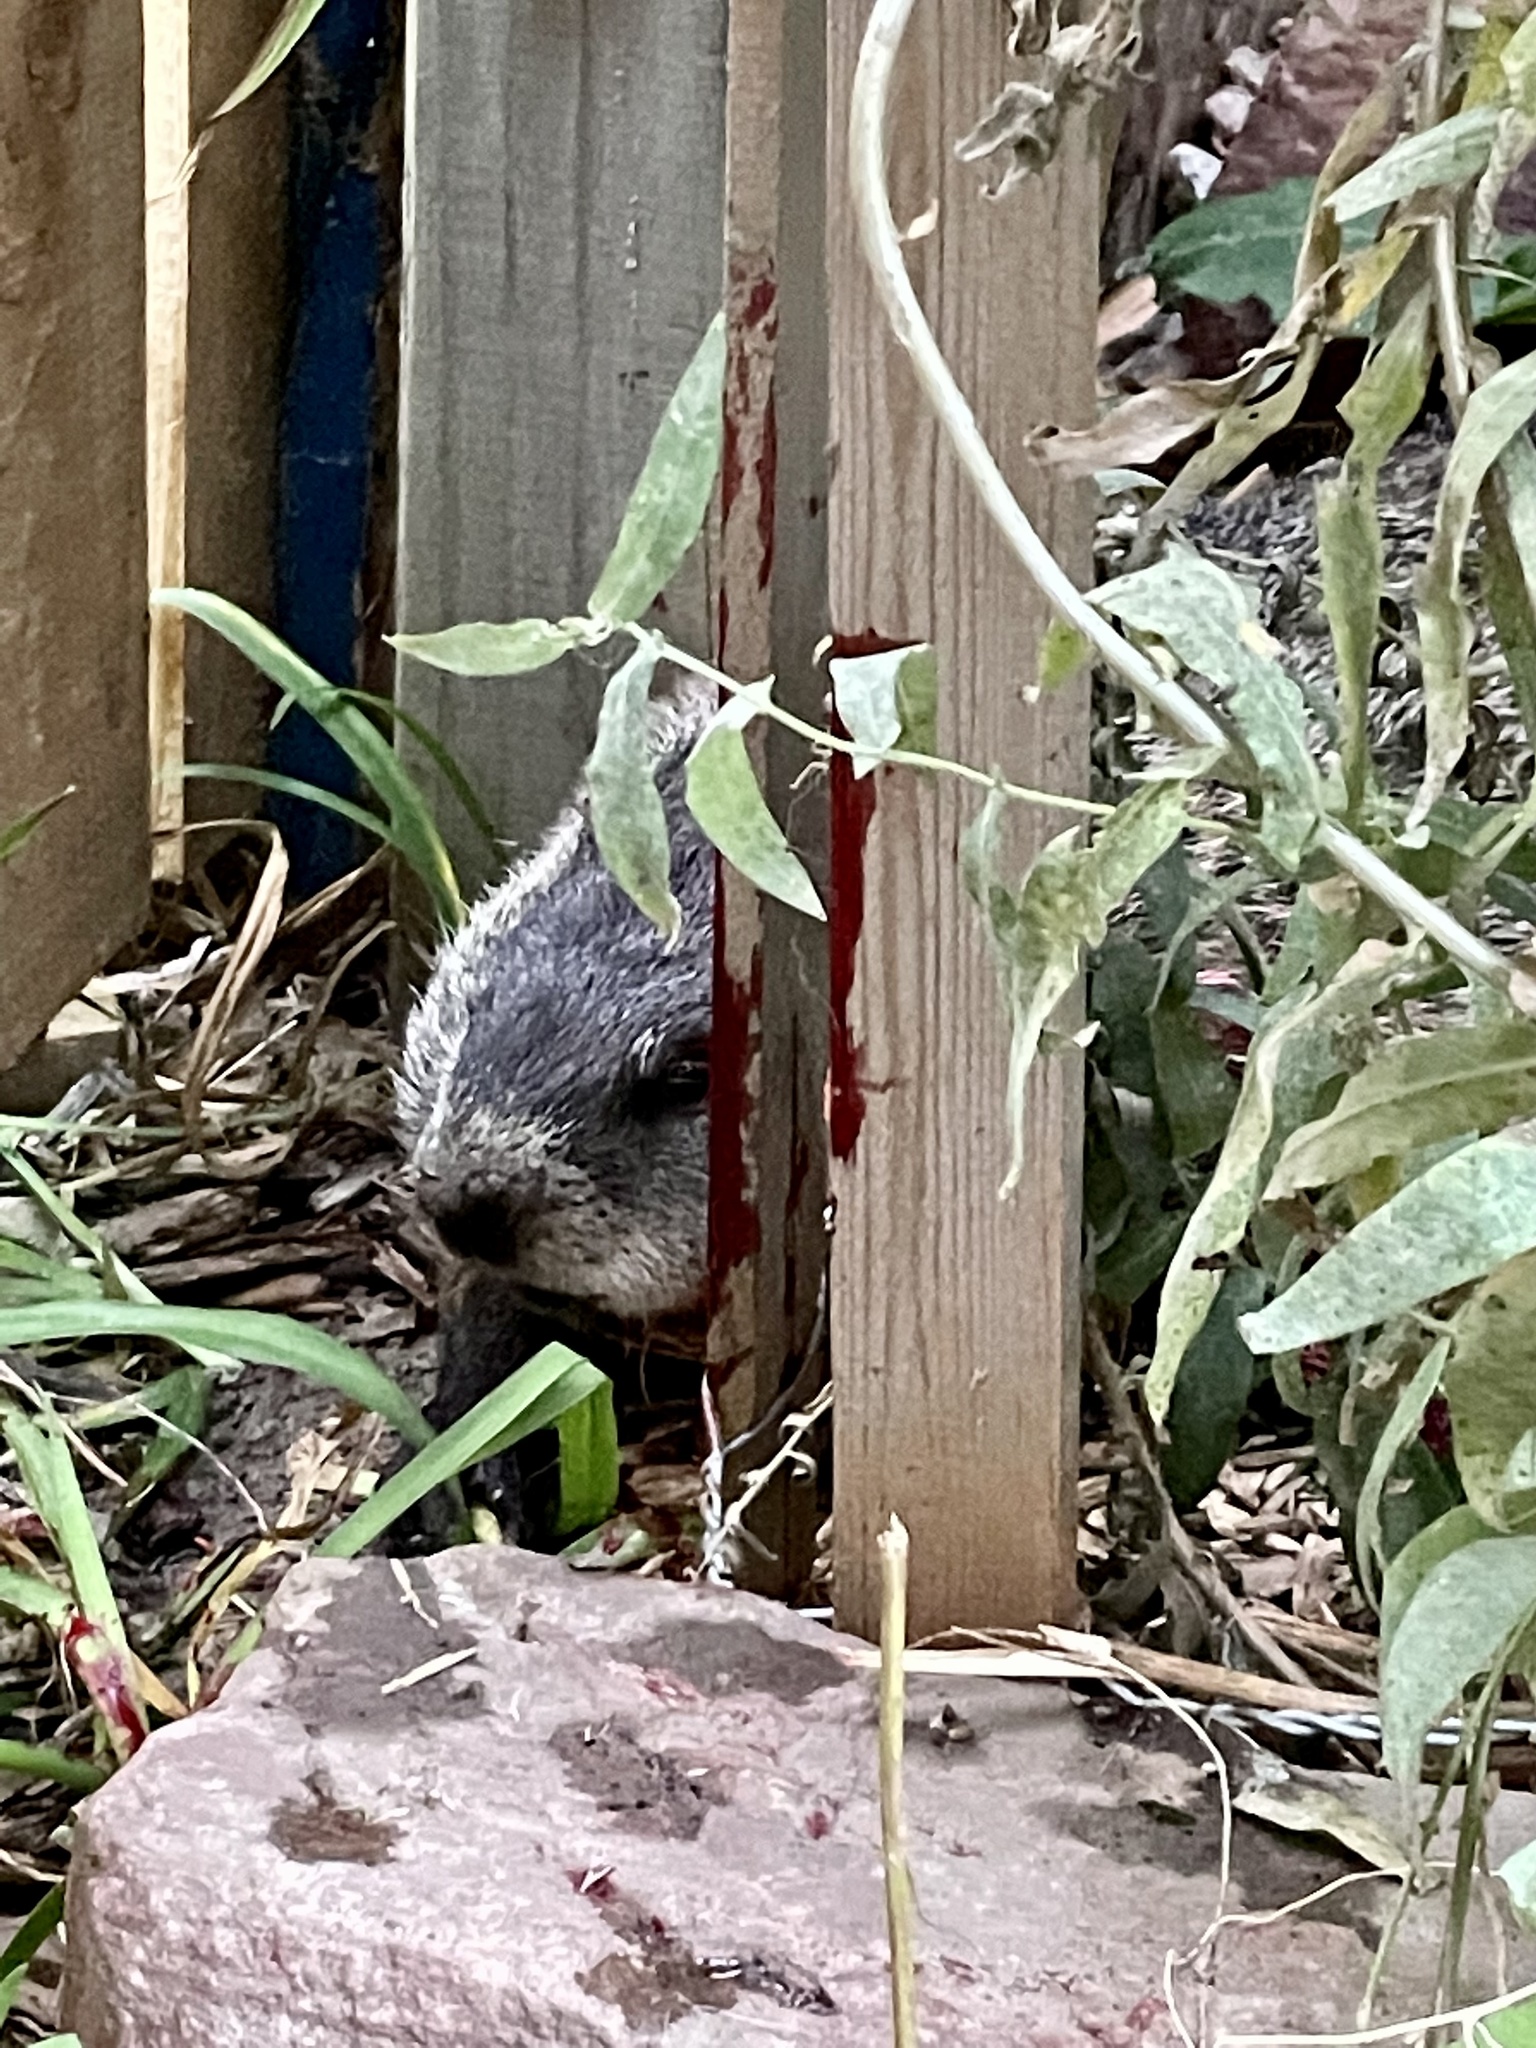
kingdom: Animalia
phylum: Chordata
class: Mammalia
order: Rodentia
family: Sciuridae
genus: Marmota
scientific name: Marmota monax
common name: Groundhog
